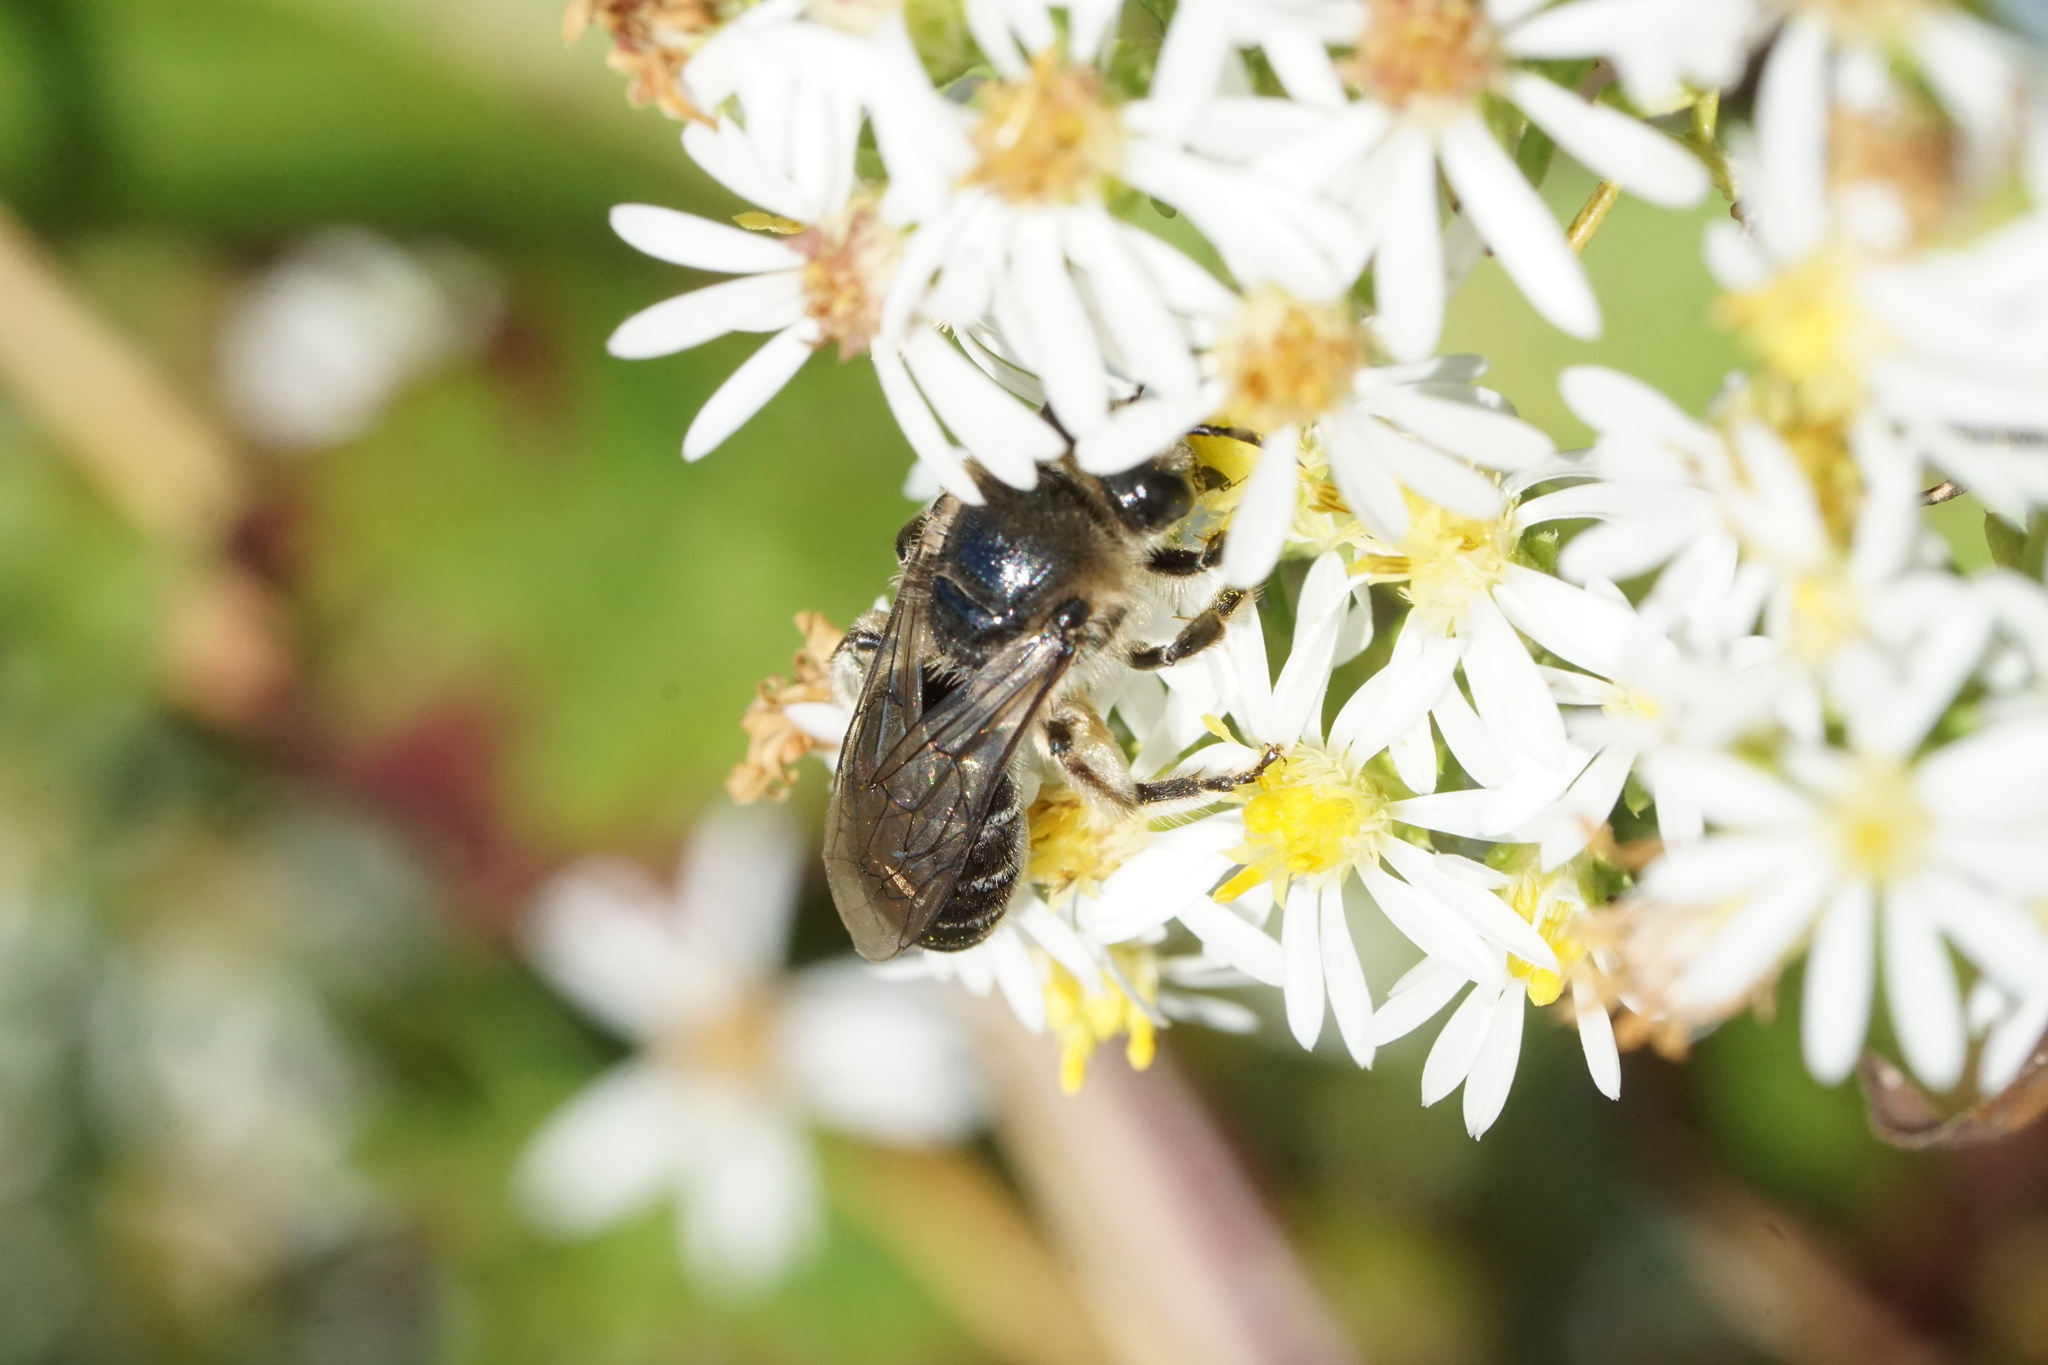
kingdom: Animalia
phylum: Arthropoda
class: Insecta
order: Hymenoptera
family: Colletidae
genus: Colletes
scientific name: Colletes compactus
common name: Aster cellophane bee
